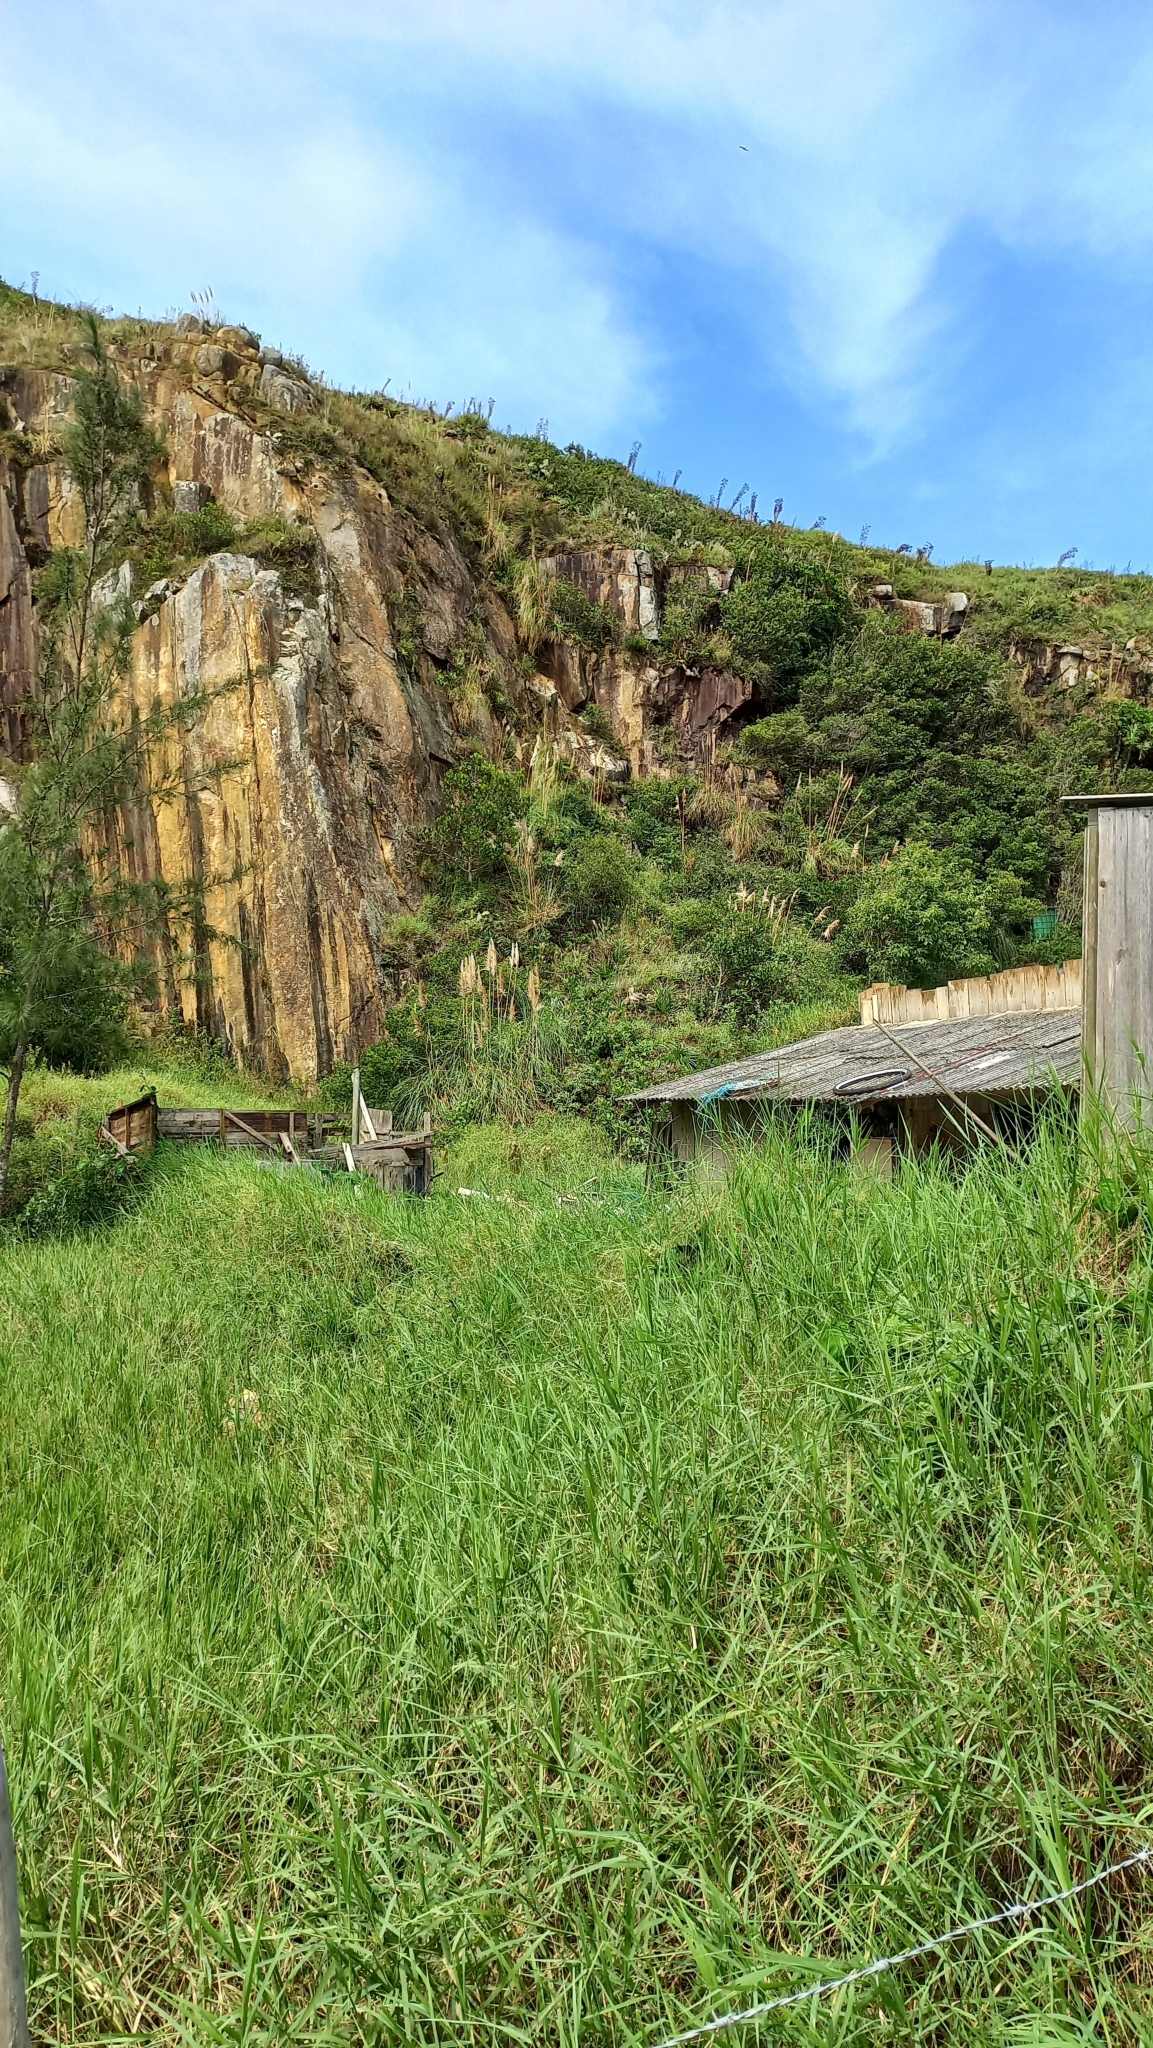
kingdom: Plantae
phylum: Tracheophyta
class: Liliopsida
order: Poales
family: Poaceae
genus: Cortaderia
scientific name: Cortaderia selloana
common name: Uruguayan pampas grass
